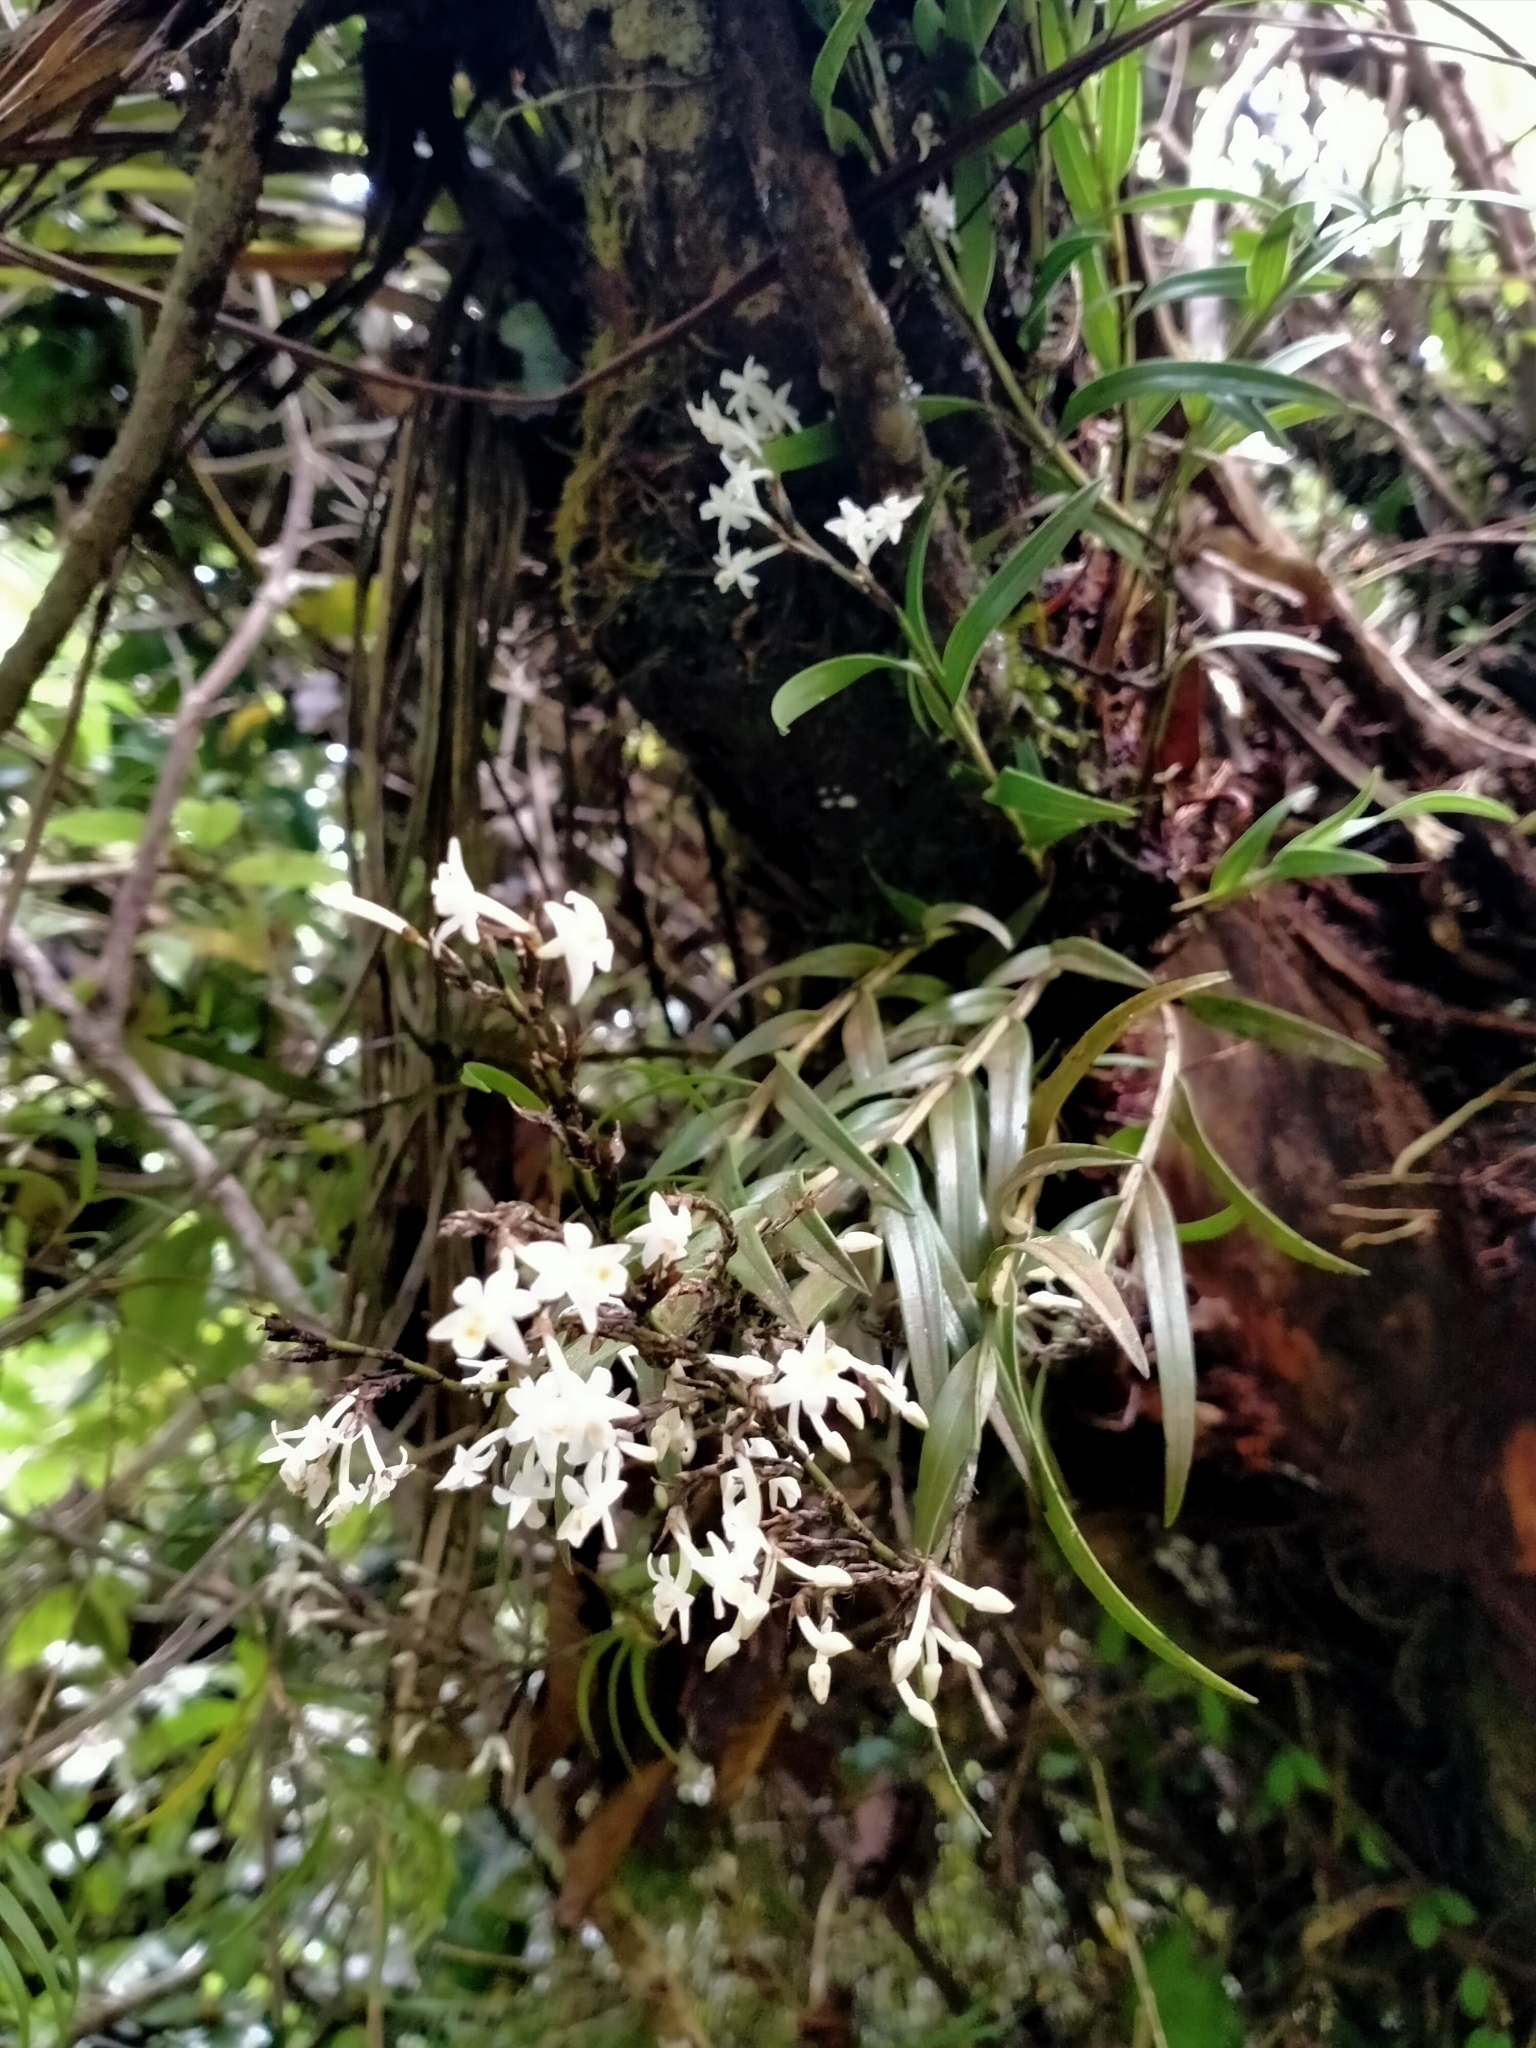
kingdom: Plantae
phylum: Tracheophyta
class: Liliopsida
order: Asparagales
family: Orchidaceae
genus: Earina
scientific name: Earina autumnalis
